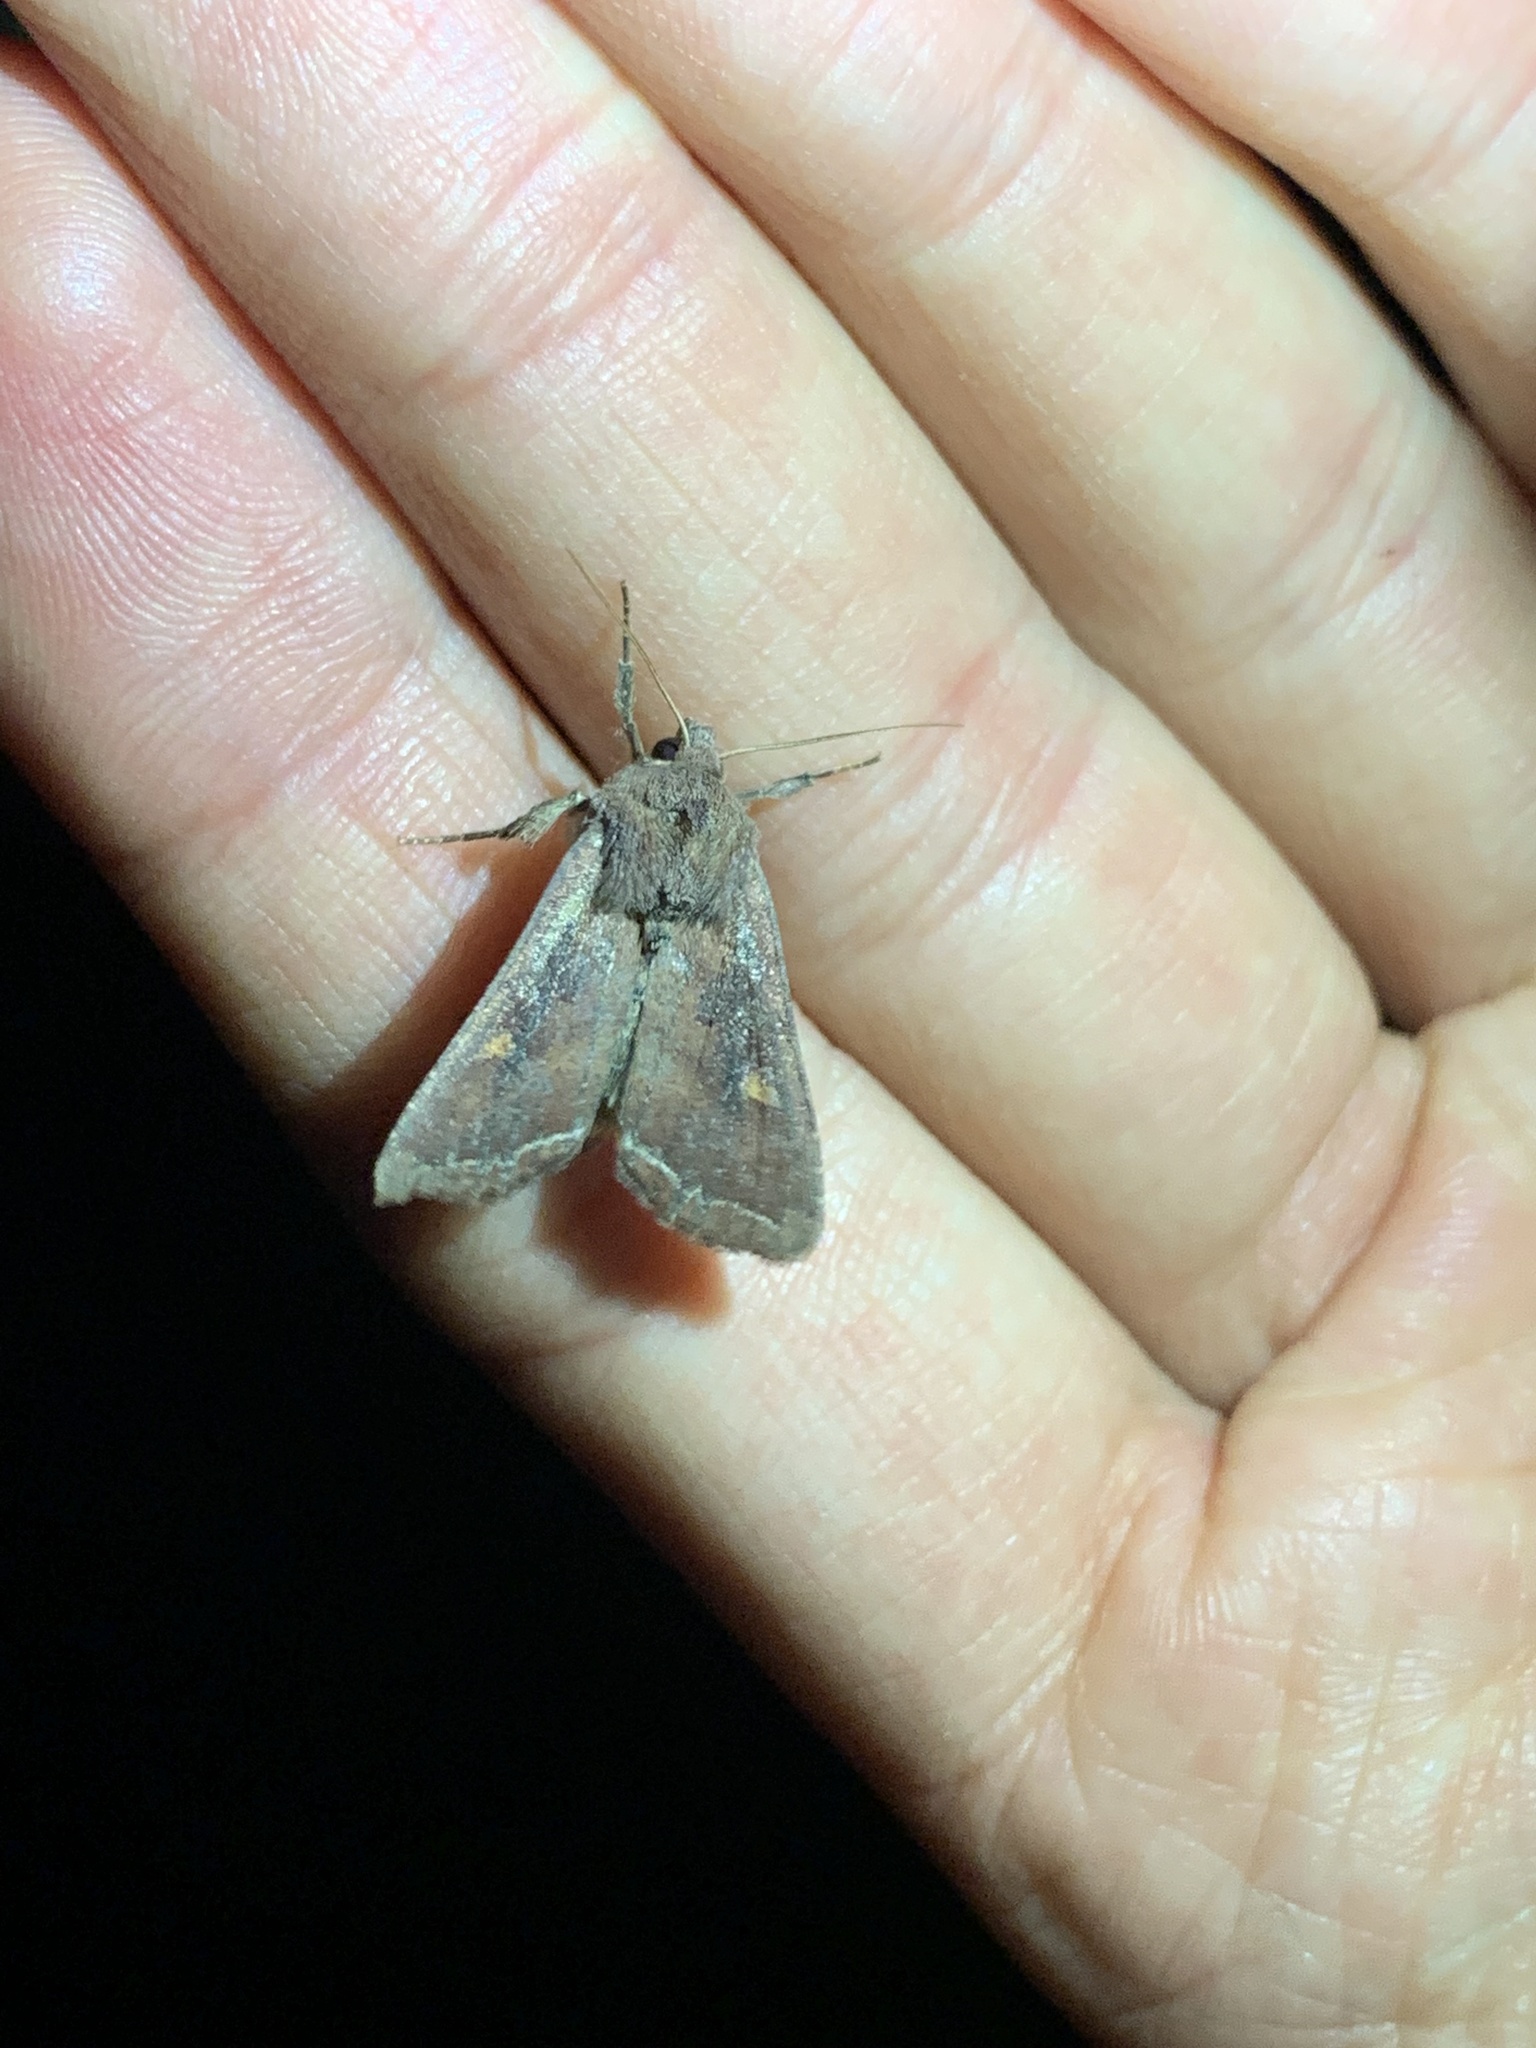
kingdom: Animalia
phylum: Arthropoda
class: Insecta
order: Lepidoptera
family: Noctuidae
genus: Lacanobia
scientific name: Lacanobia oleracea
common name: Bright-line brown-eye
